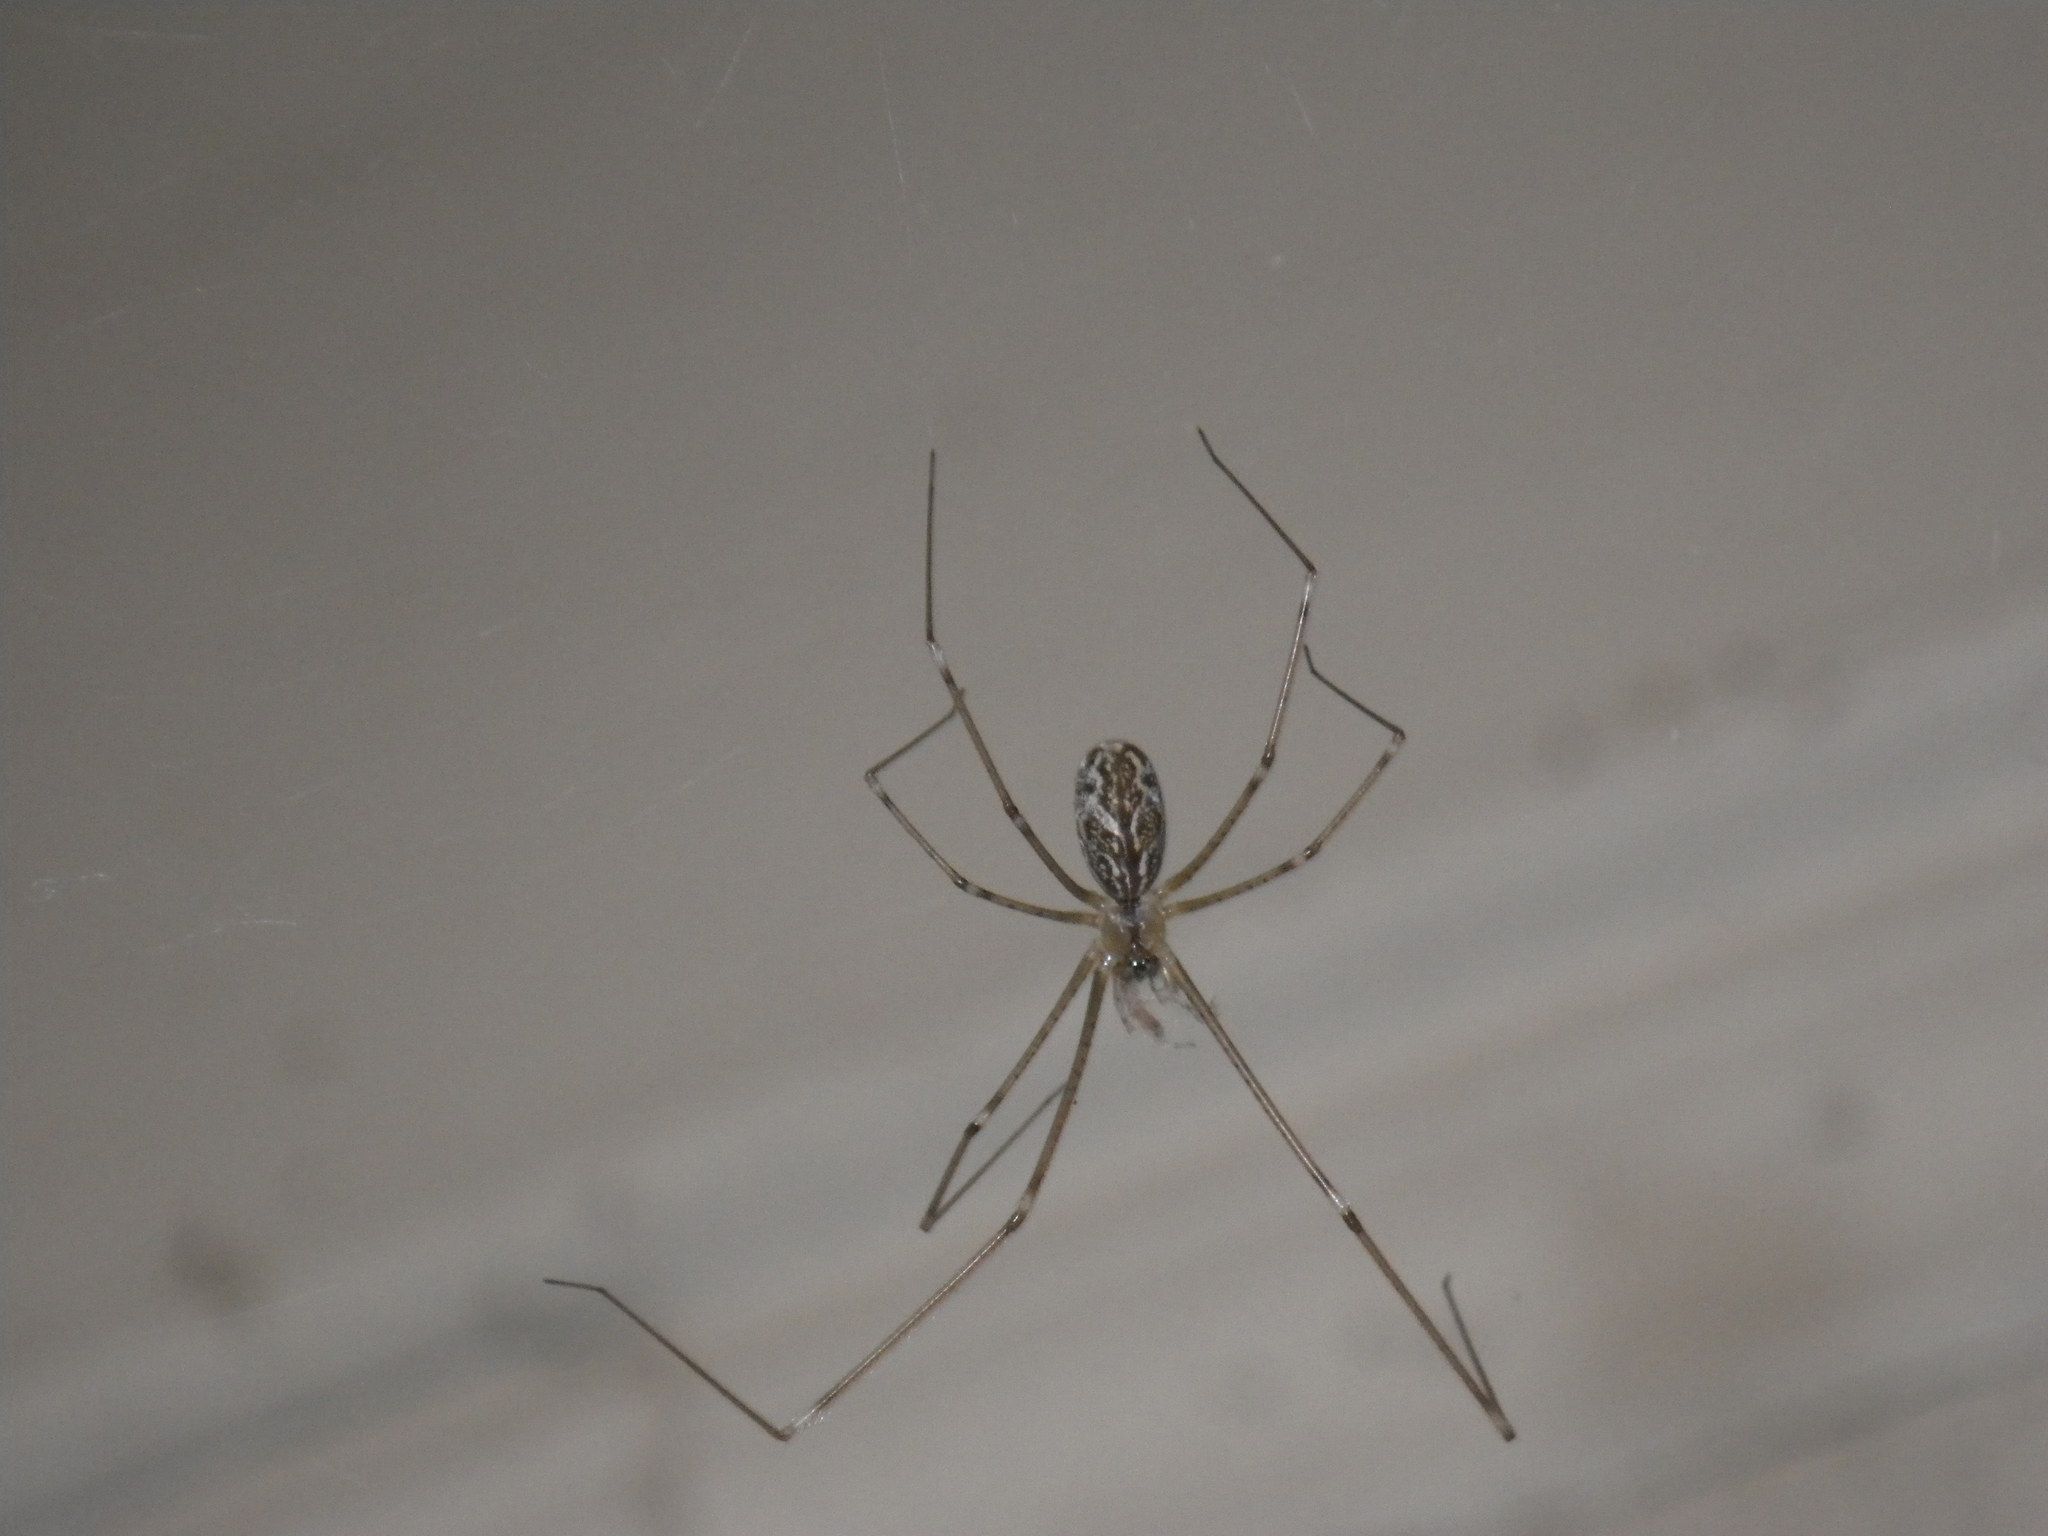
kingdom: Animalia
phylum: Arthropoda
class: Arachnida
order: Araneae
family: Pholcidae
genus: Holocnemus
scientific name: Holocnemus pluchei
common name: Marbled cellar spider
